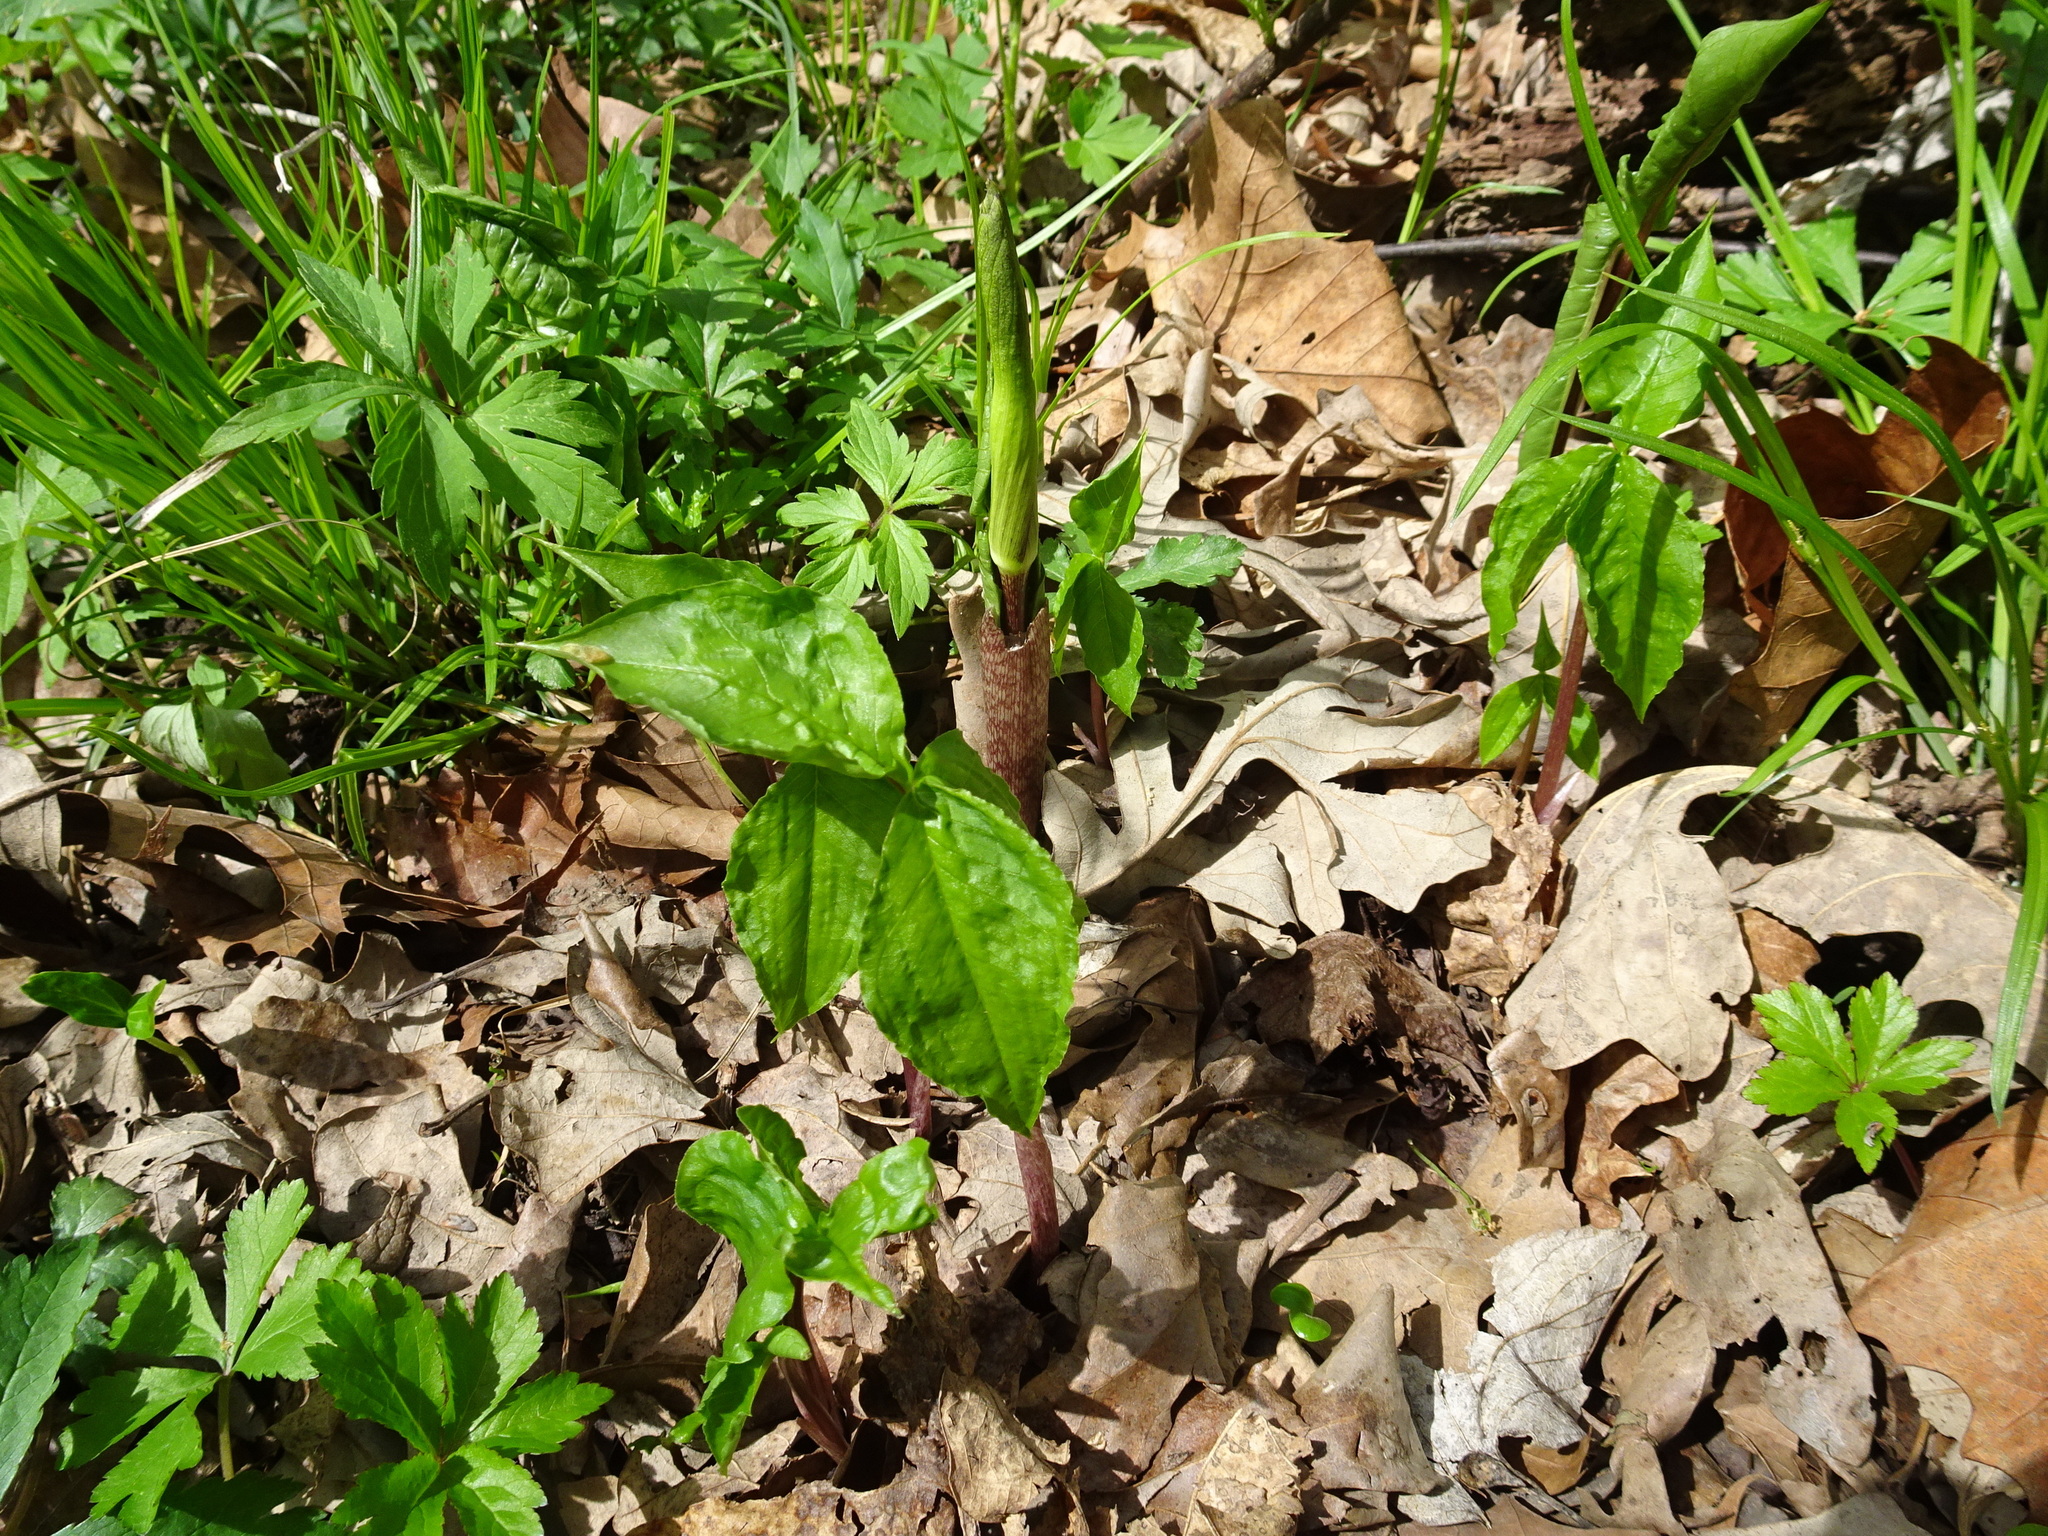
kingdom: Plantae
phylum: Tracheophyta
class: Liliopsida
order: Alismatales
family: Araceae
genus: Arisaema
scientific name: Arisaema triphyllum
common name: Jack-in-the-pulpit
